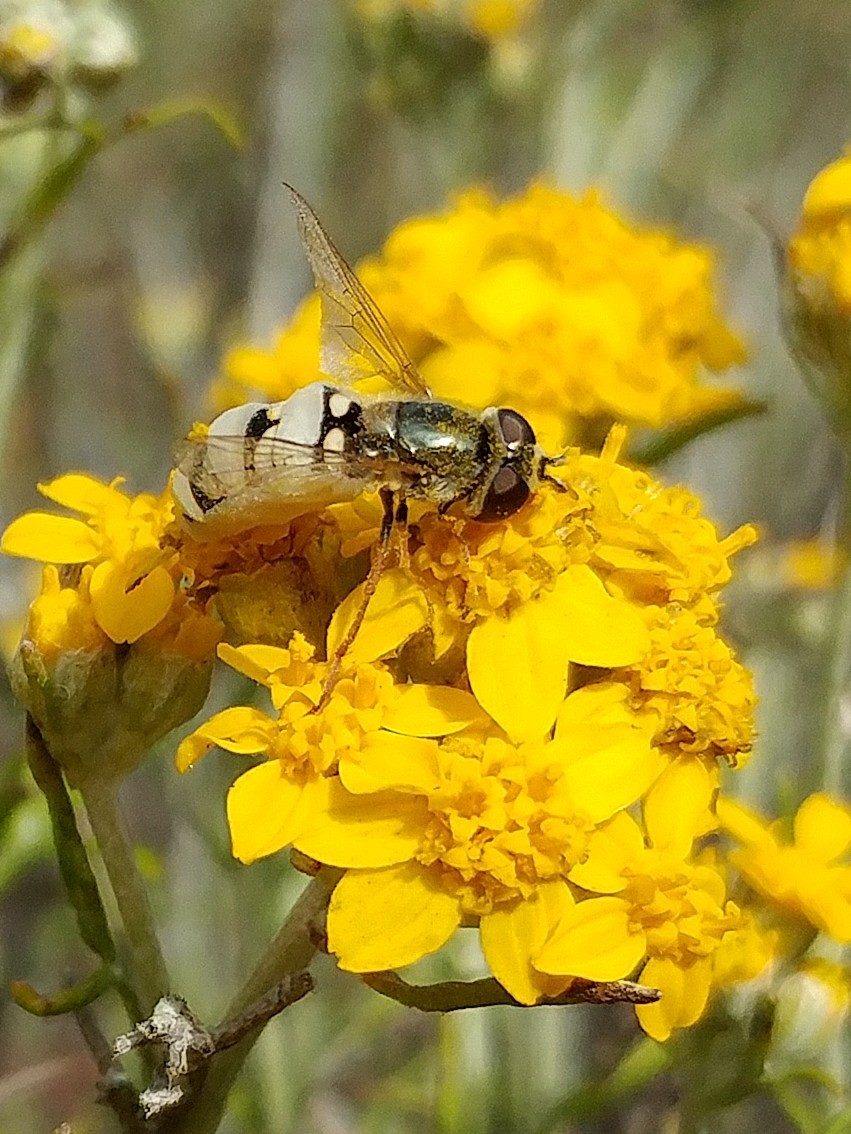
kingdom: Fungi
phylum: Entomophthoromycota
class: Entomophthoromycetes
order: Entomophthorales
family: Entomophthoraceae
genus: Entomophthora
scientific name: Entomophthora
